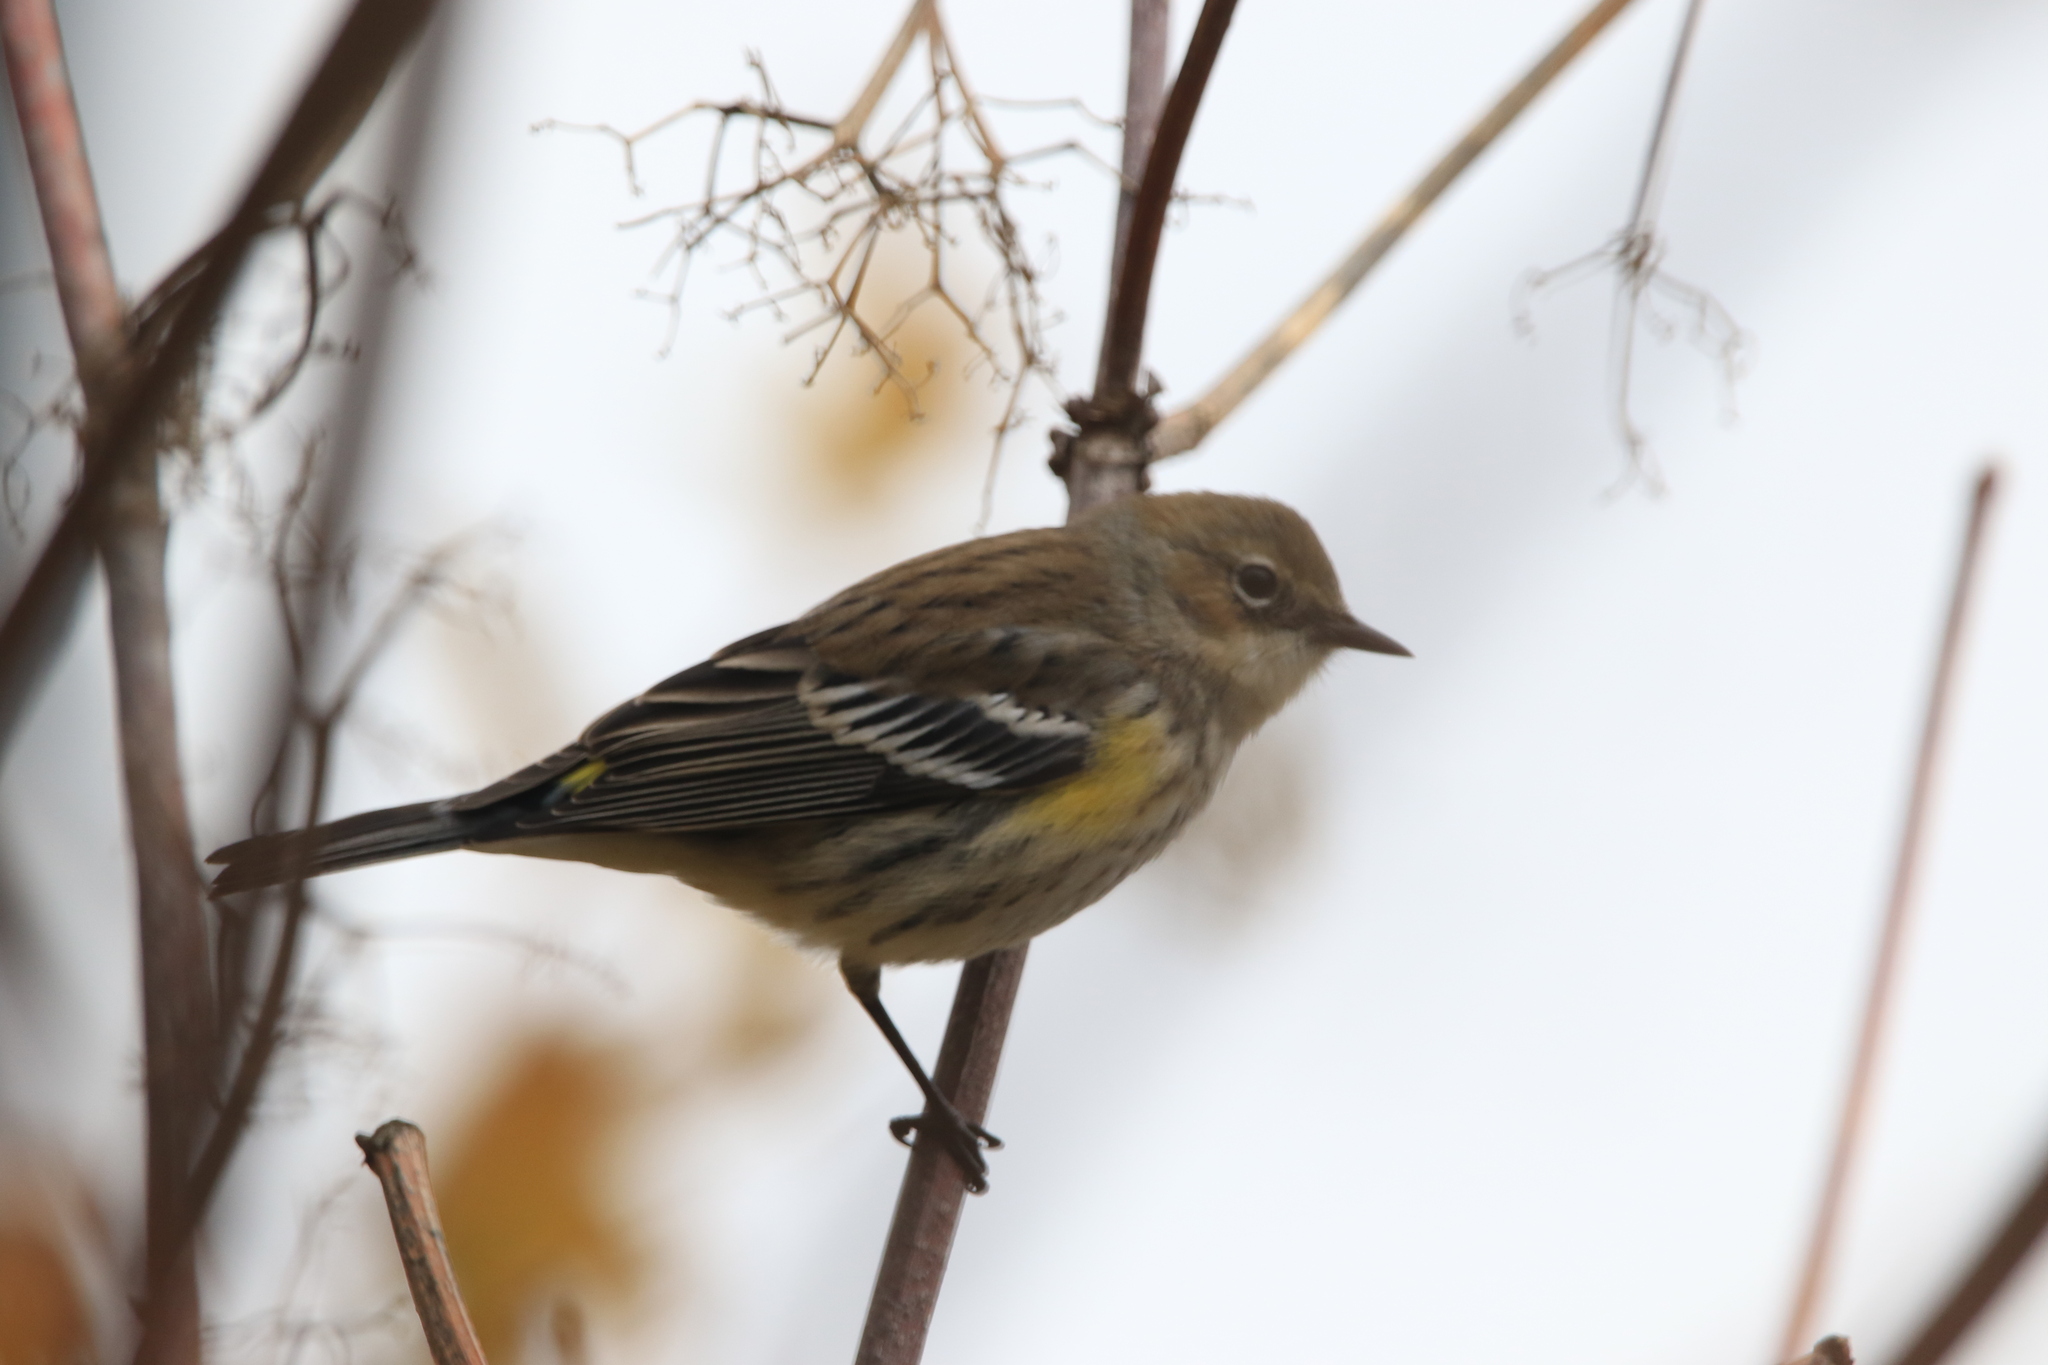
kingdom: Animalia
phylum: Chordata
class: Aves
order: Passeriformes
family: Parulidae
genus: Setophaga
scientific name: Setophaga coronata
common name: Myrtle warbler
